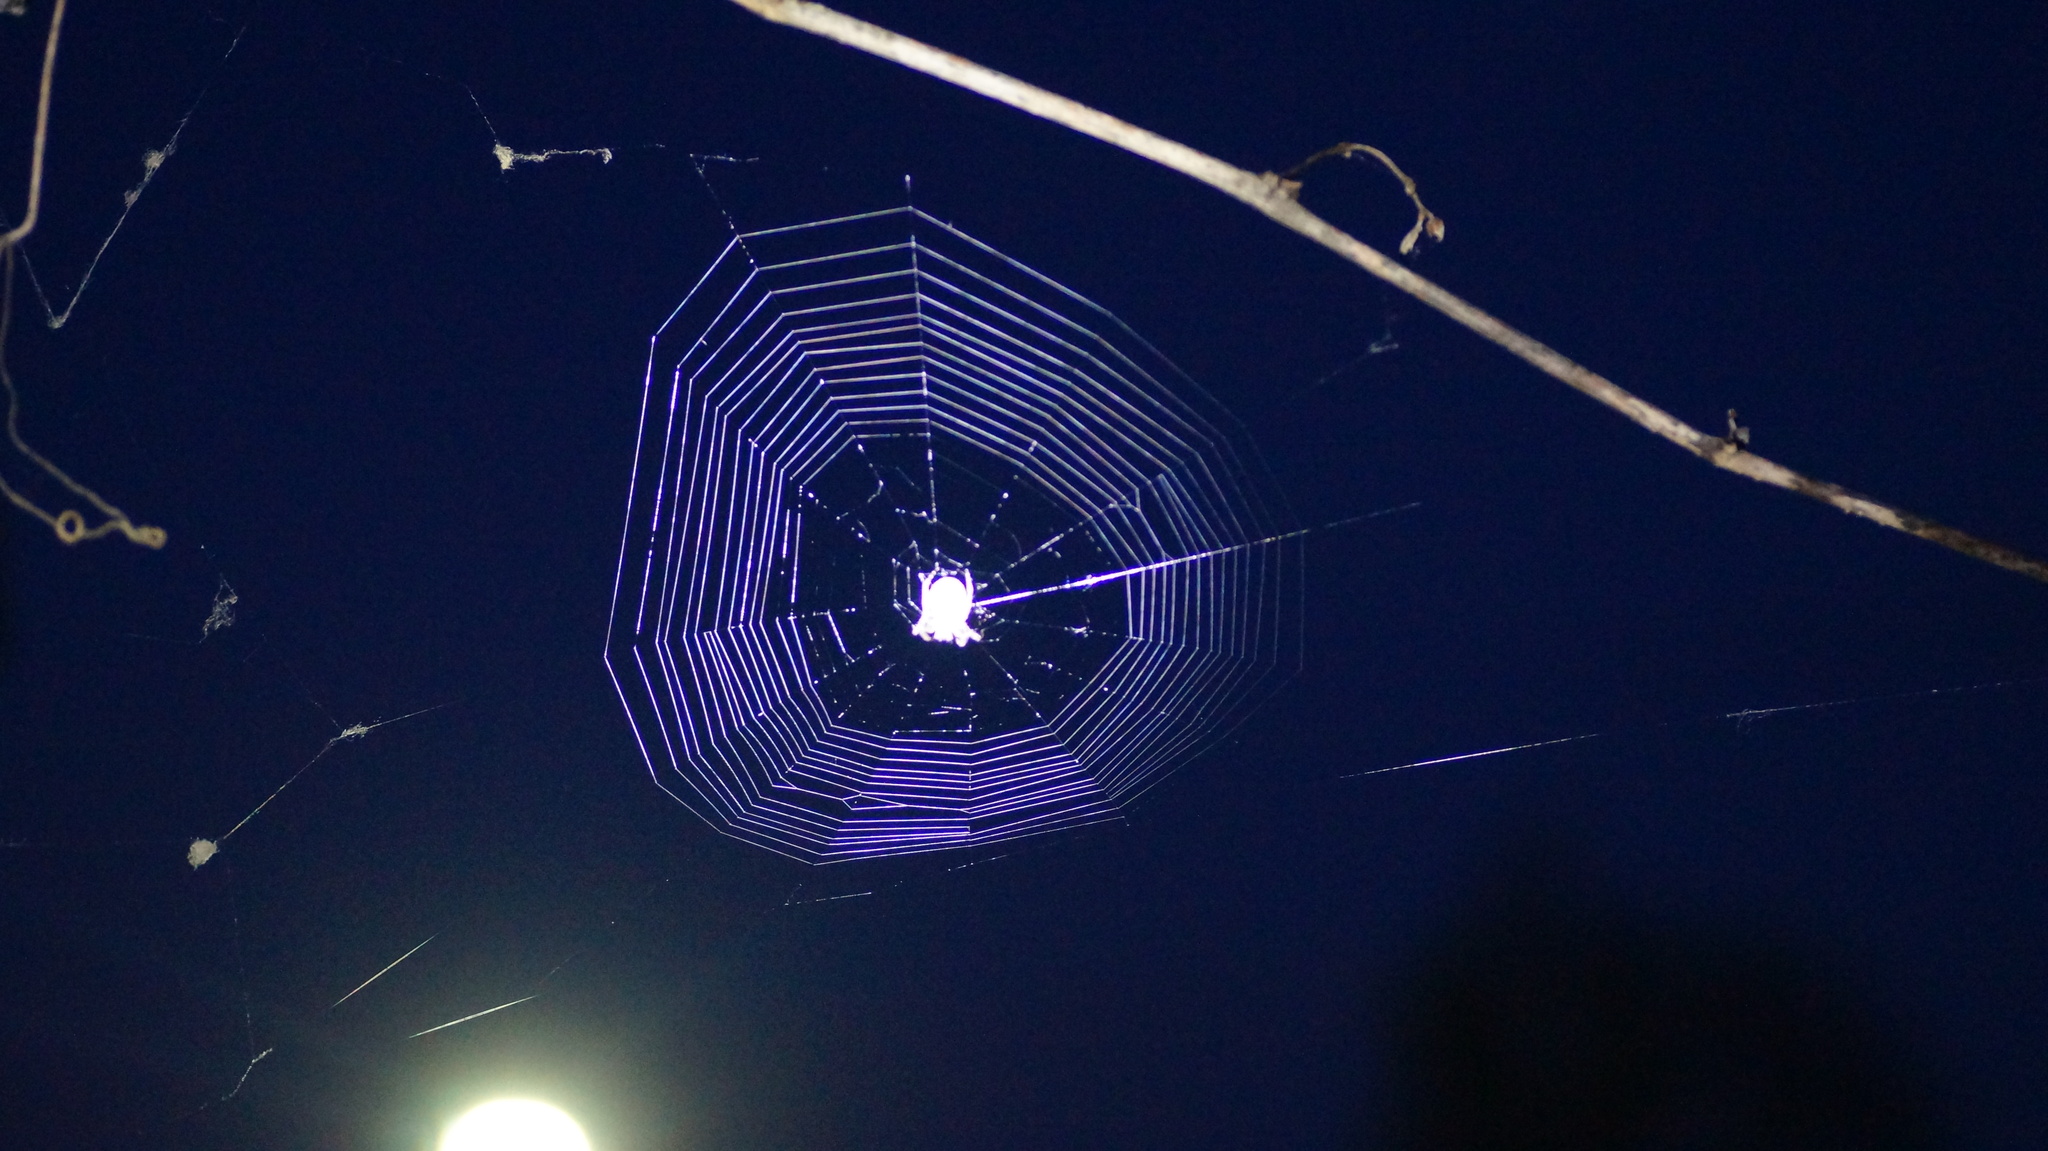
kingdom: Animalia
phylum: Arthropoda
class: Arachnida
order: Araneae
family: Araneidae
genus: Larinioides
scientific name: Larinioides ixobolus
